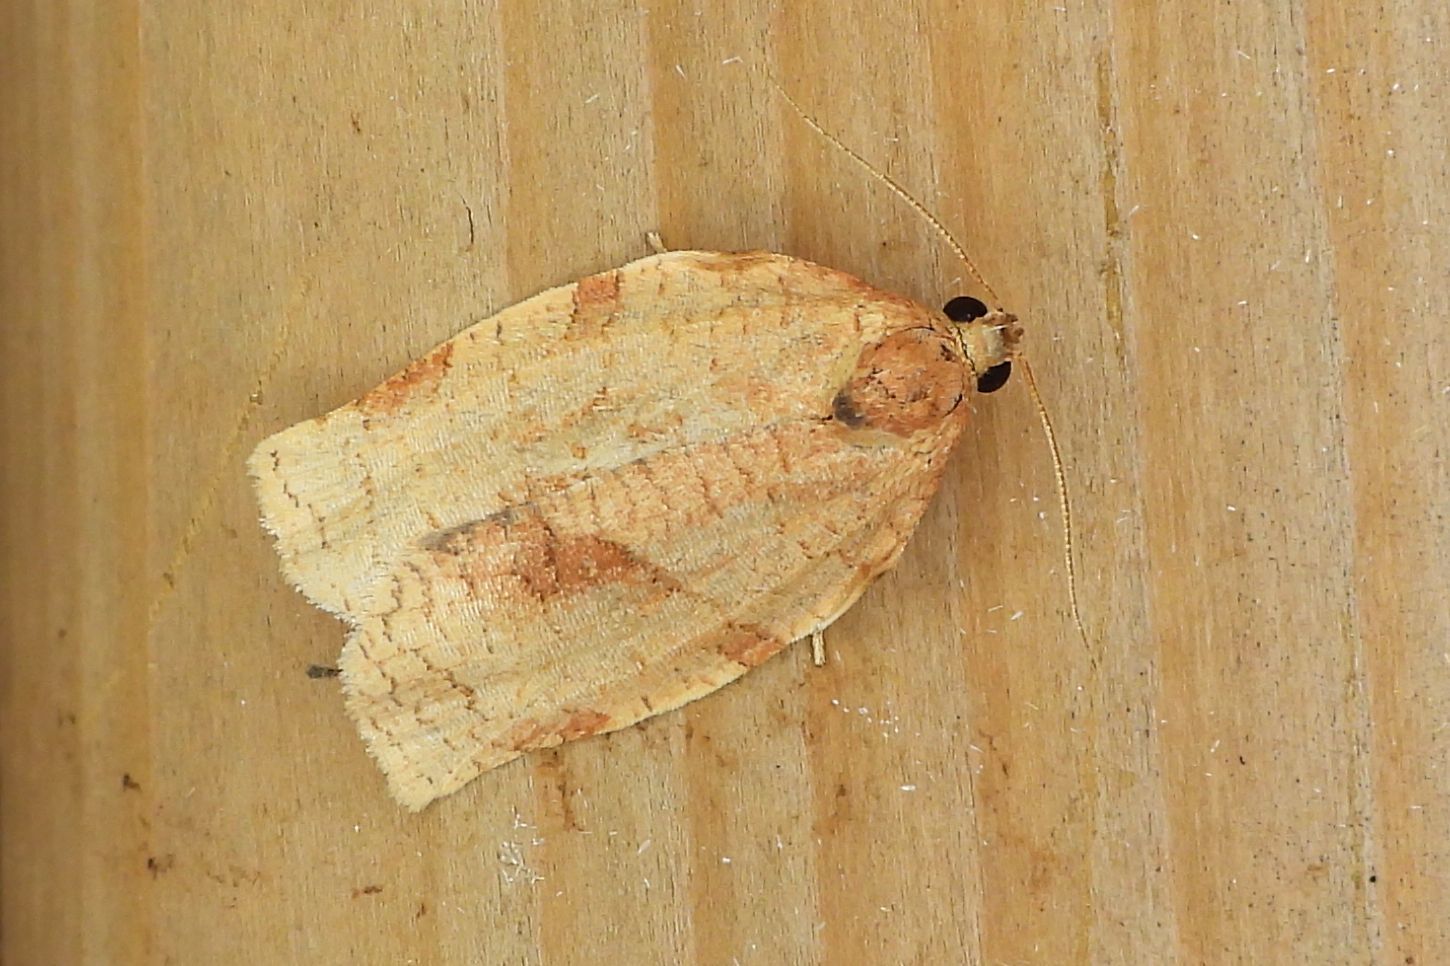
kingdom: Animalia
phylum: Arthropoda
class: Insecta
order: Lepidoptera
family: Tortricidae
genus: Choristoneura
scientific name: Choristoneura rosaceana
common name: Oblique-banded leafroller moth
